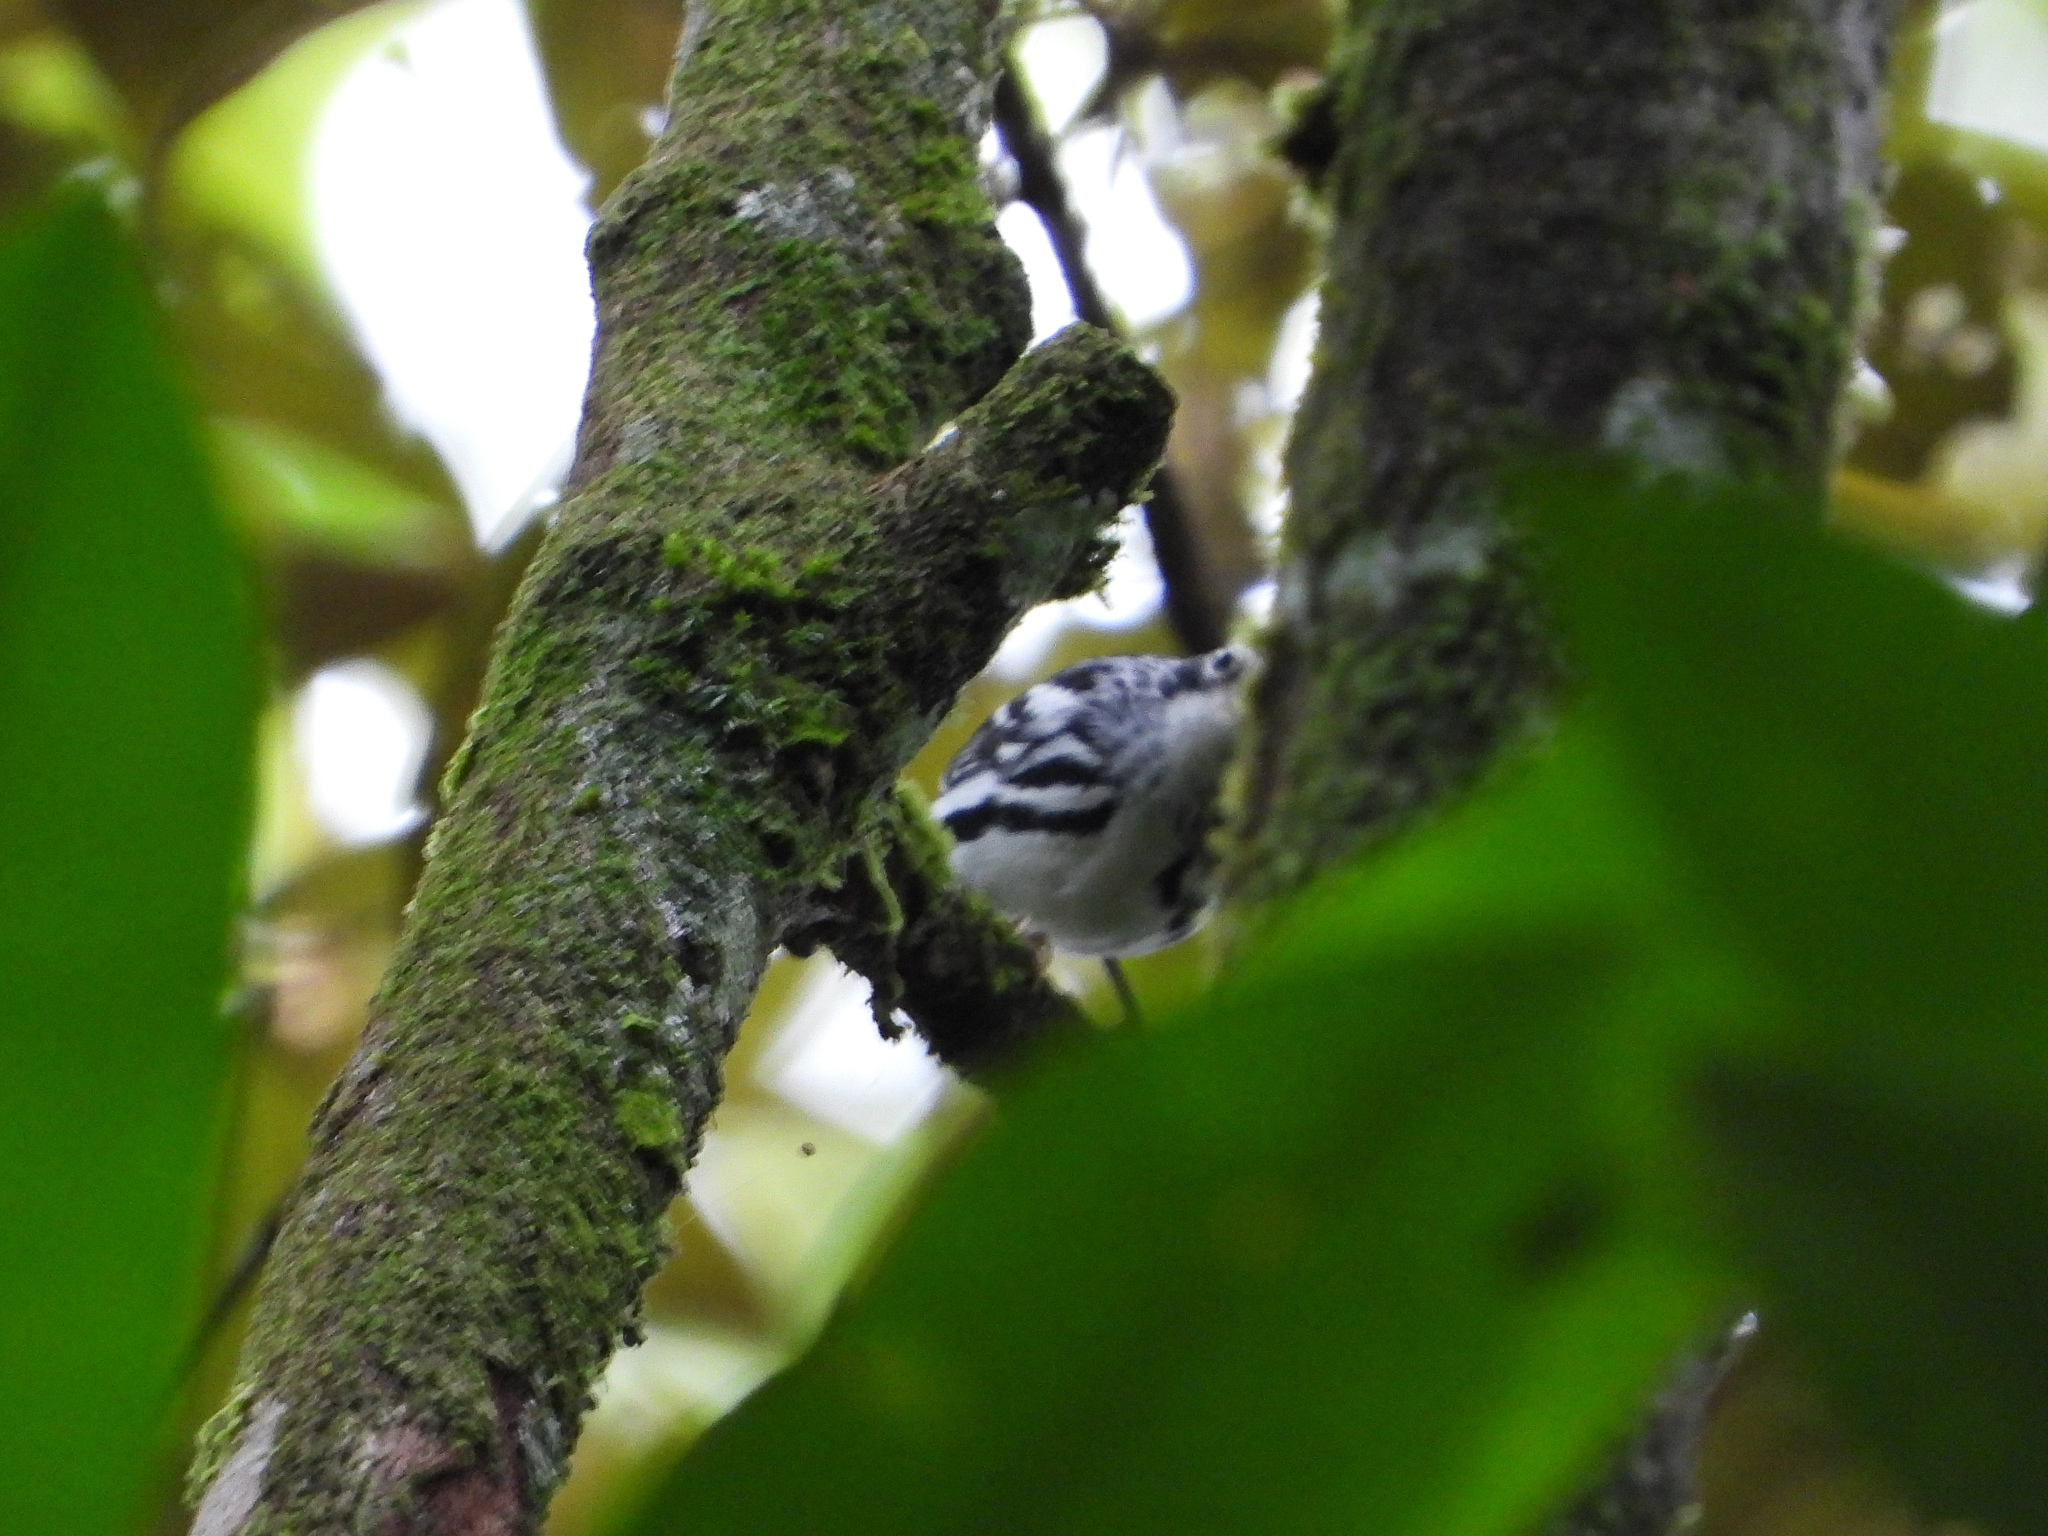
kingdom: Animalia
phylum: Chordata
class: Aves
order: Passeriformes
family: Parulidae
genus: Mniotilta
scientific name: Mniotilta varia
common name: Black-and-white warbler
